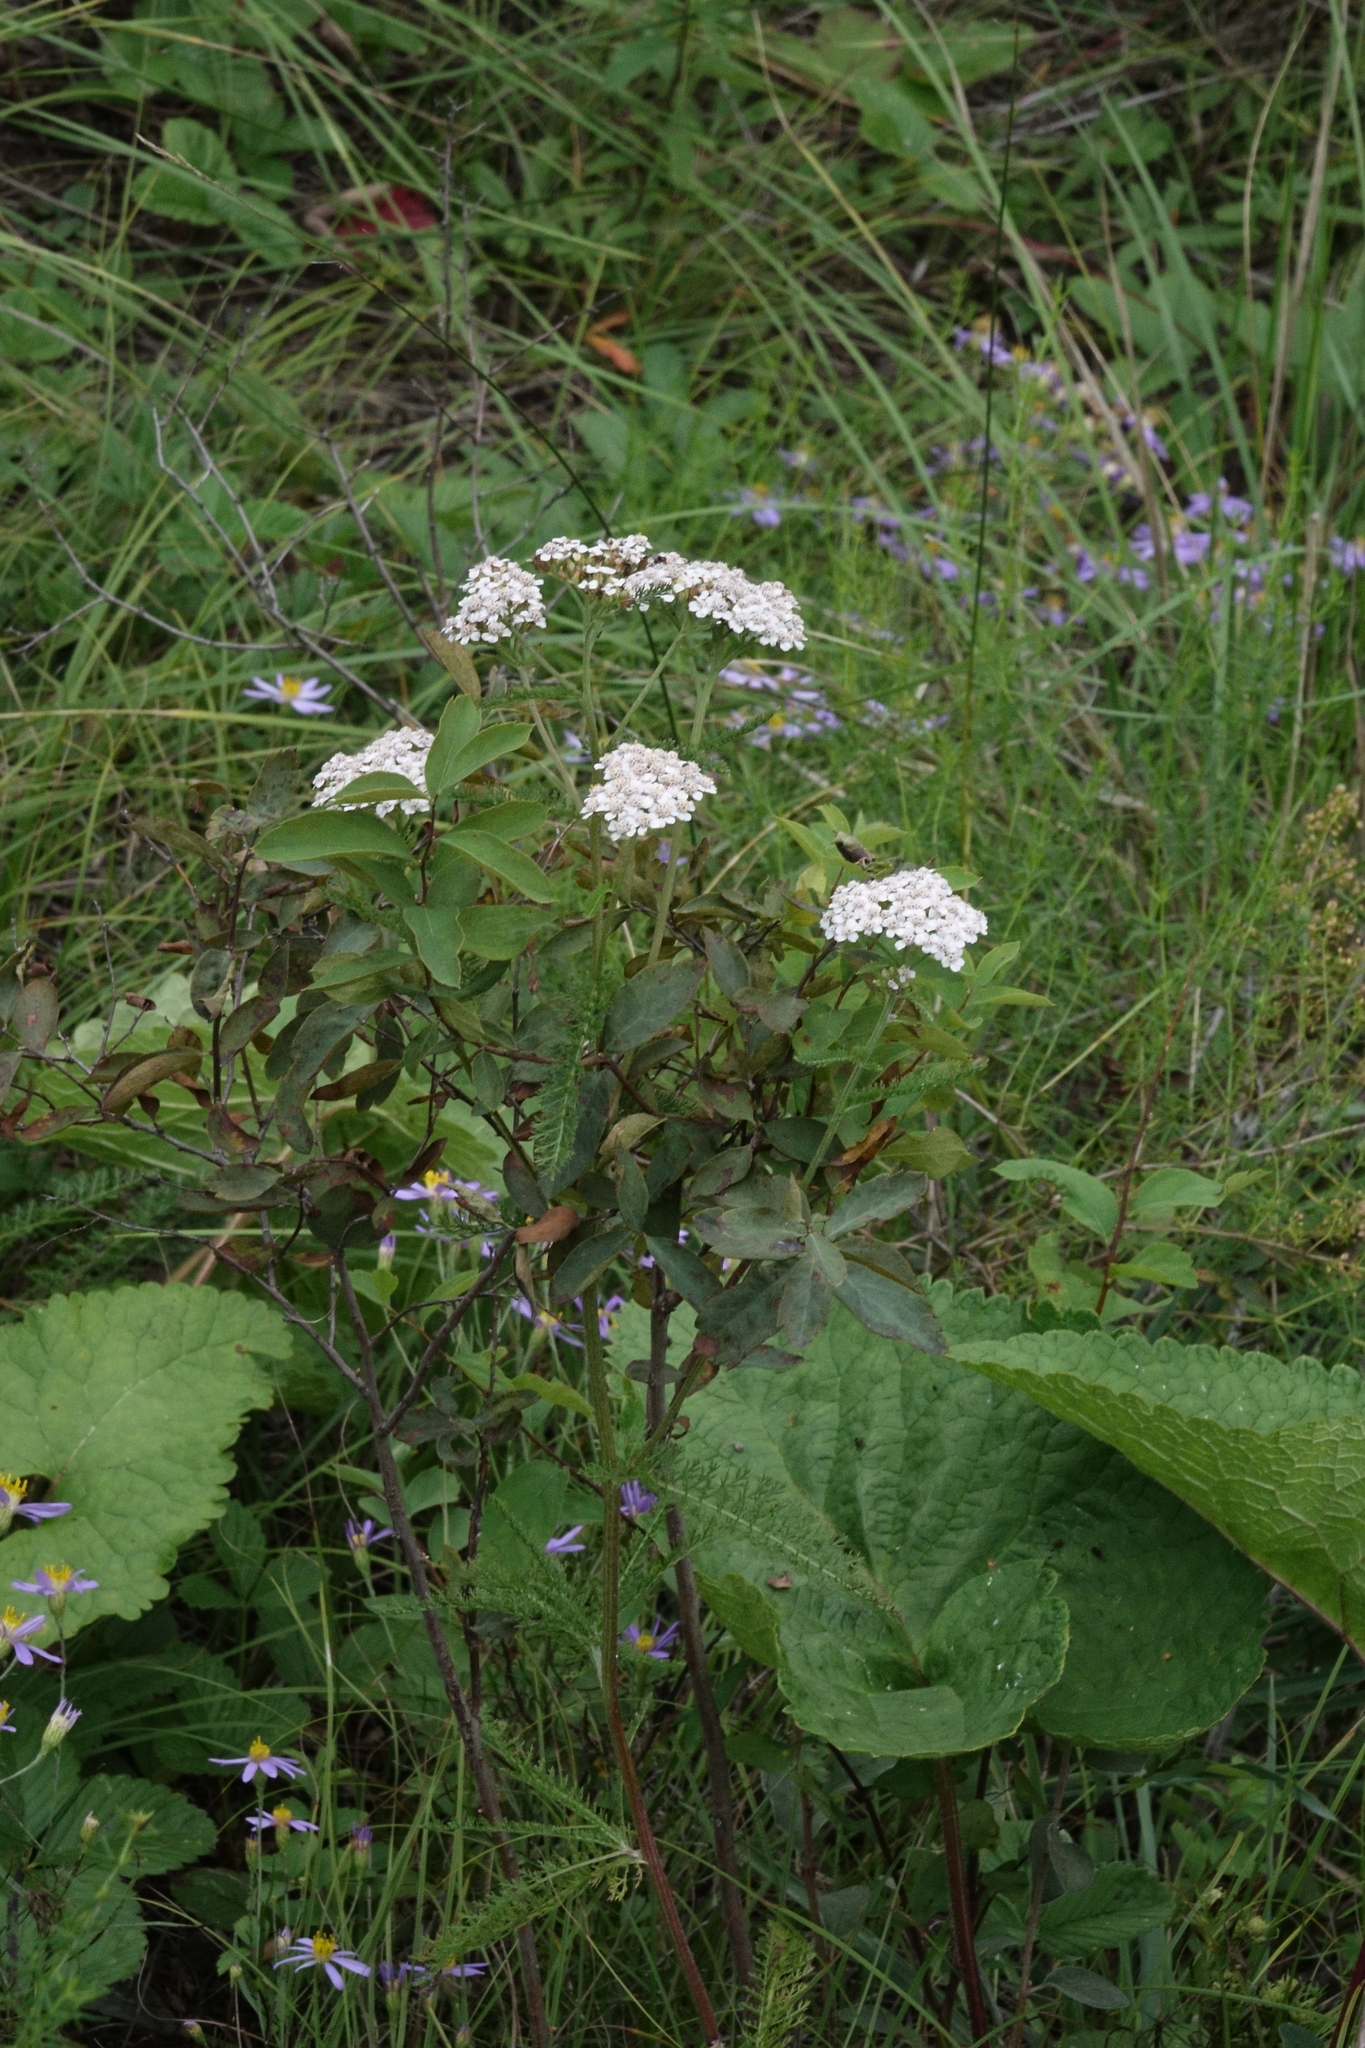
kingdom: Plantae
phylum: Tracheophyta
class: Magnoliopsida
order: Asterales
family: Asteraceae
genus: Achillea
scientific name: Achillea millefolium
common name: Yarrow
